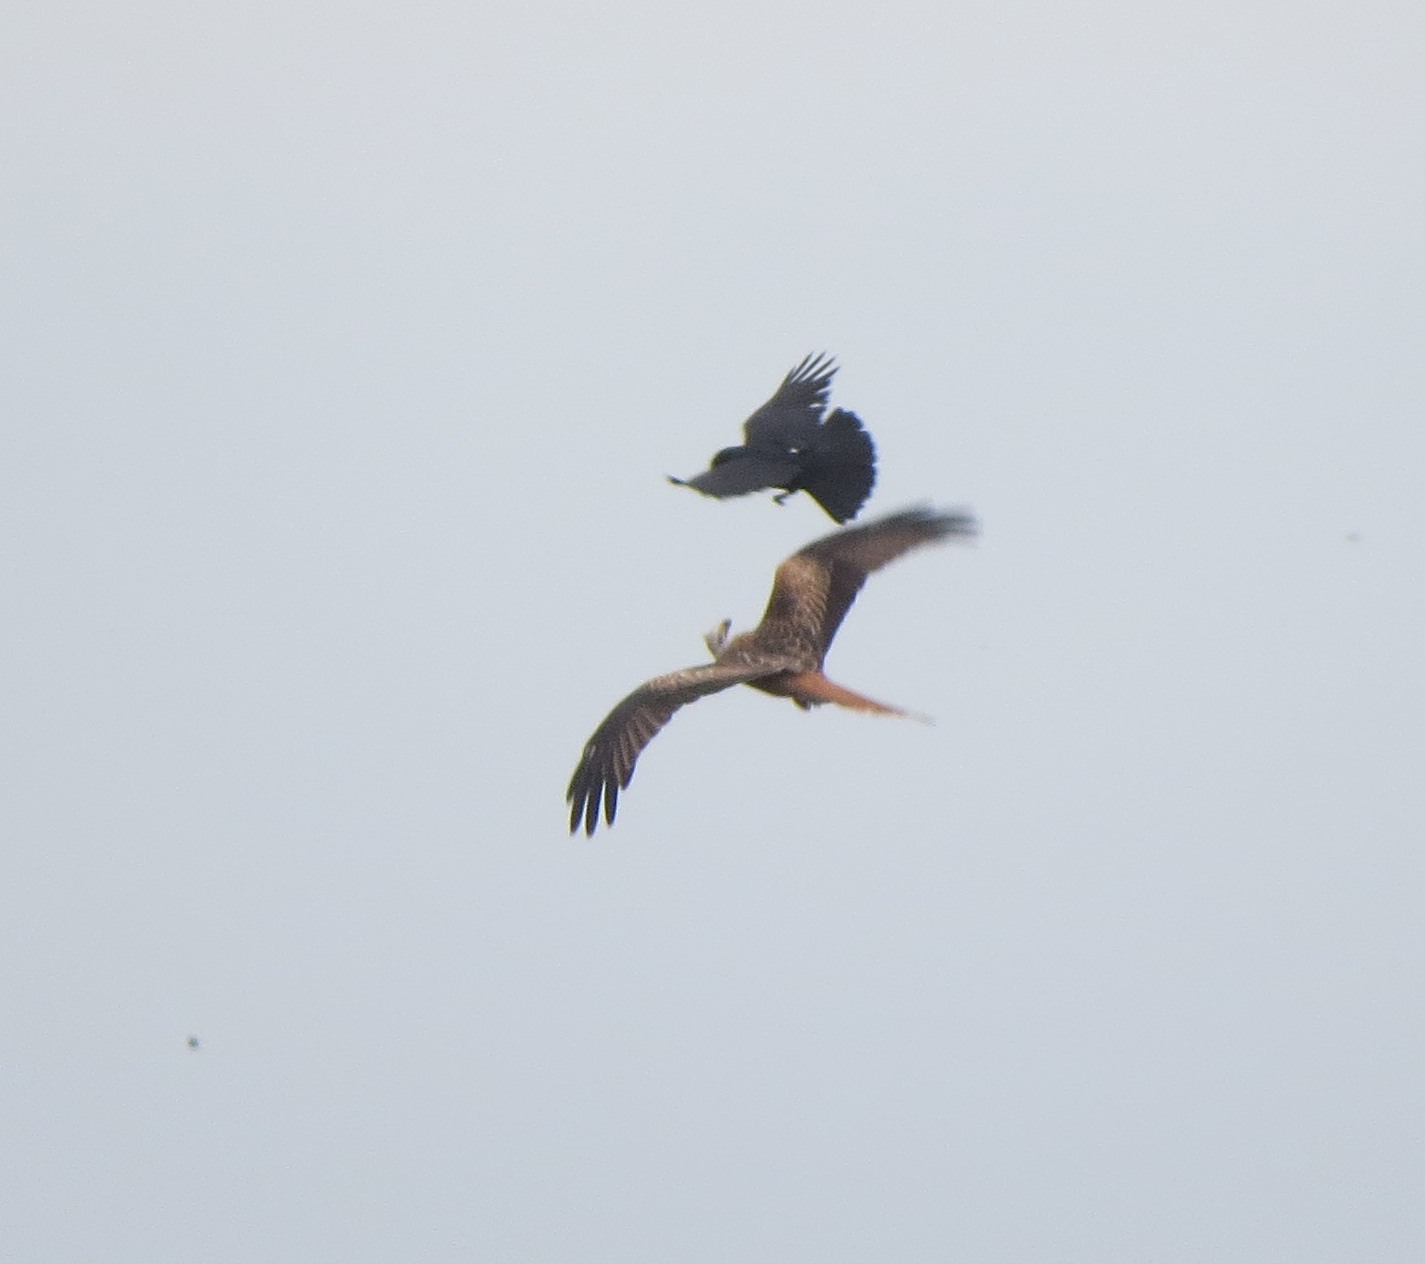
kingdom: Animalia
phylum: Chordata
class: Aves
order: Accipitriformes
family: Accipitridae
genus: Milvus
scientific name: Milvus milvus
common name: Red kite
